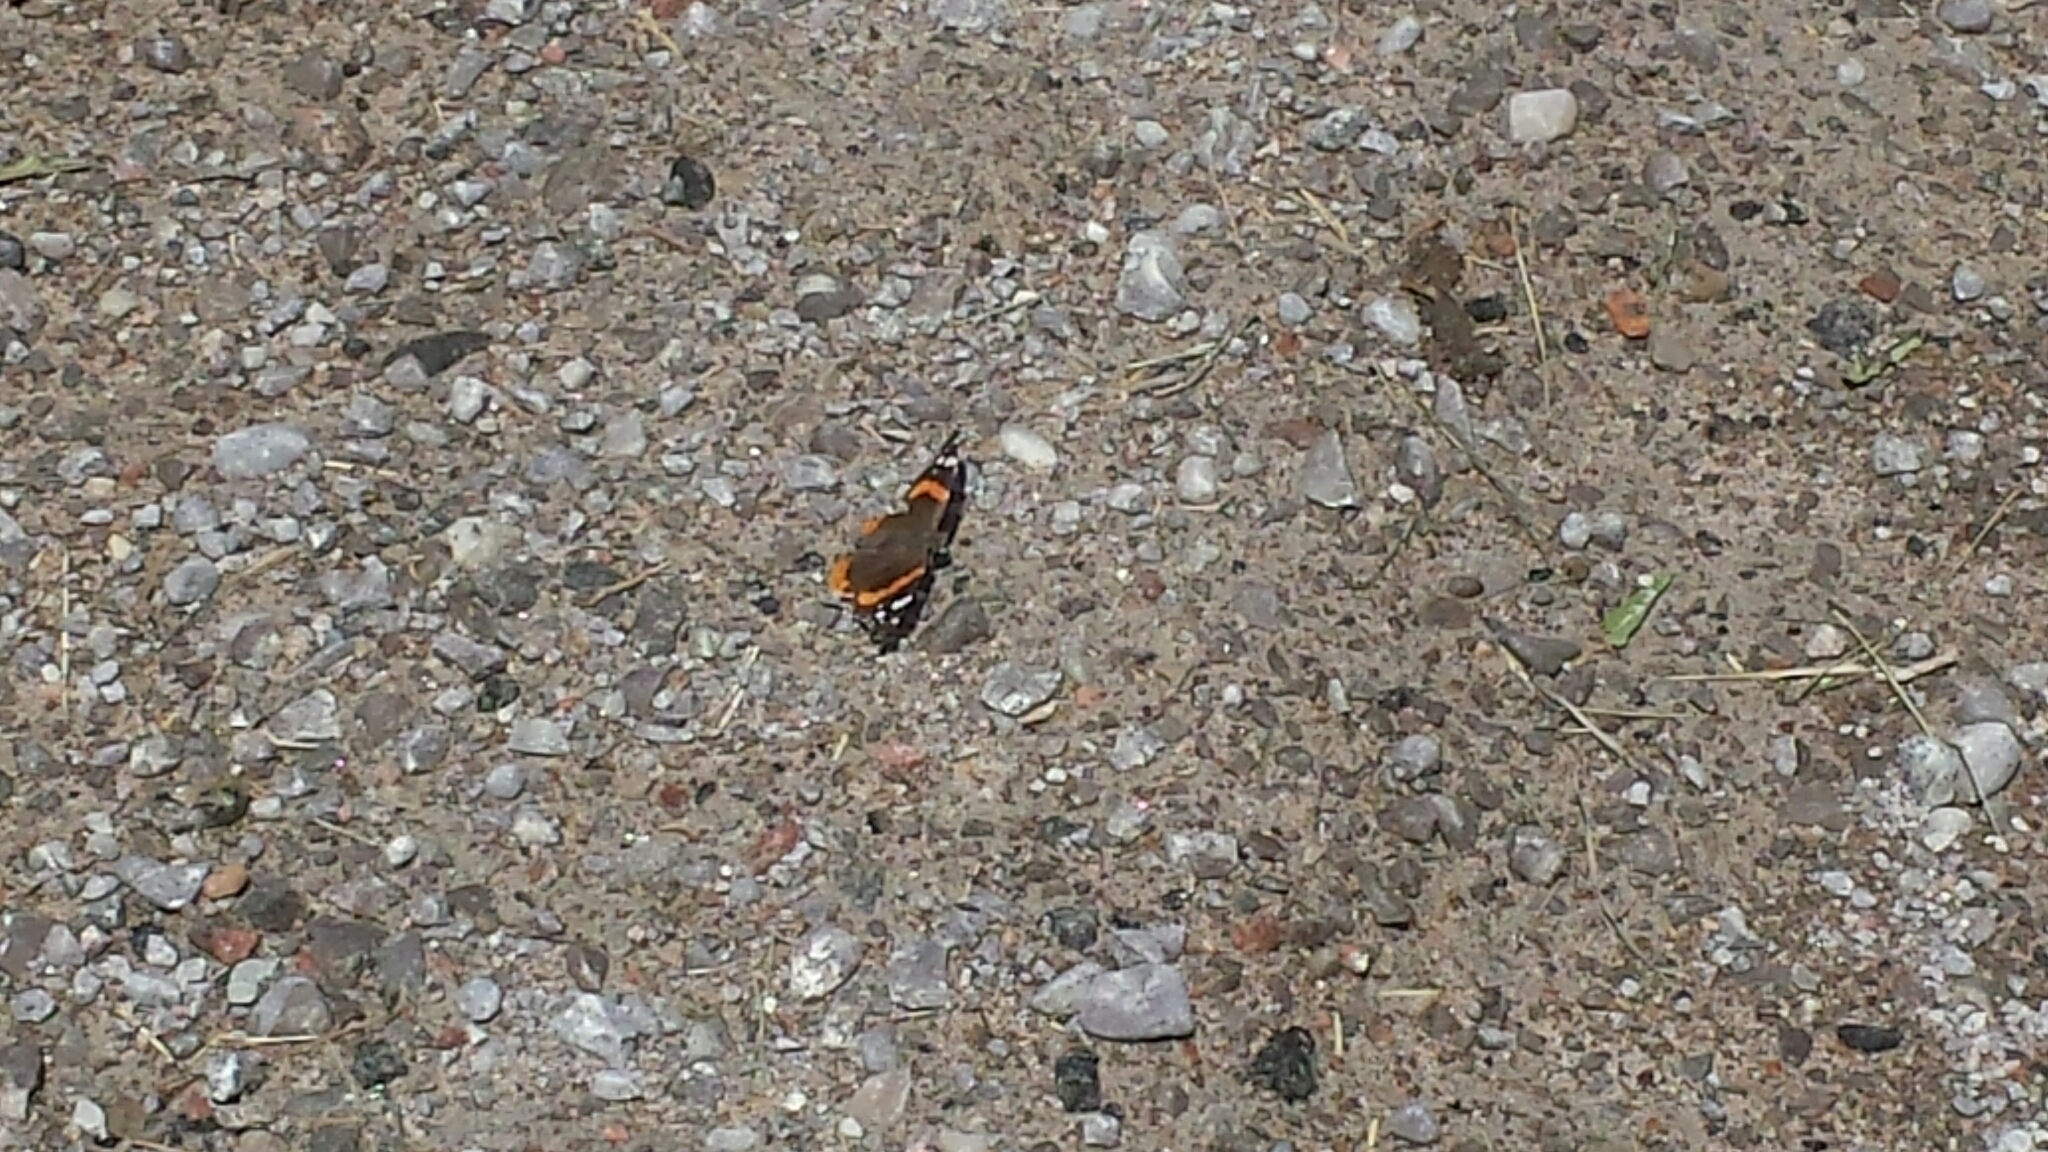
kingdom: Animalia
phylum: Arthropoda
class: Insecta
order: Lepidoptera
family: Nymphalidae
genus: Vanessa
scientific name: Vanessa atalanta
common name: Red admiral
